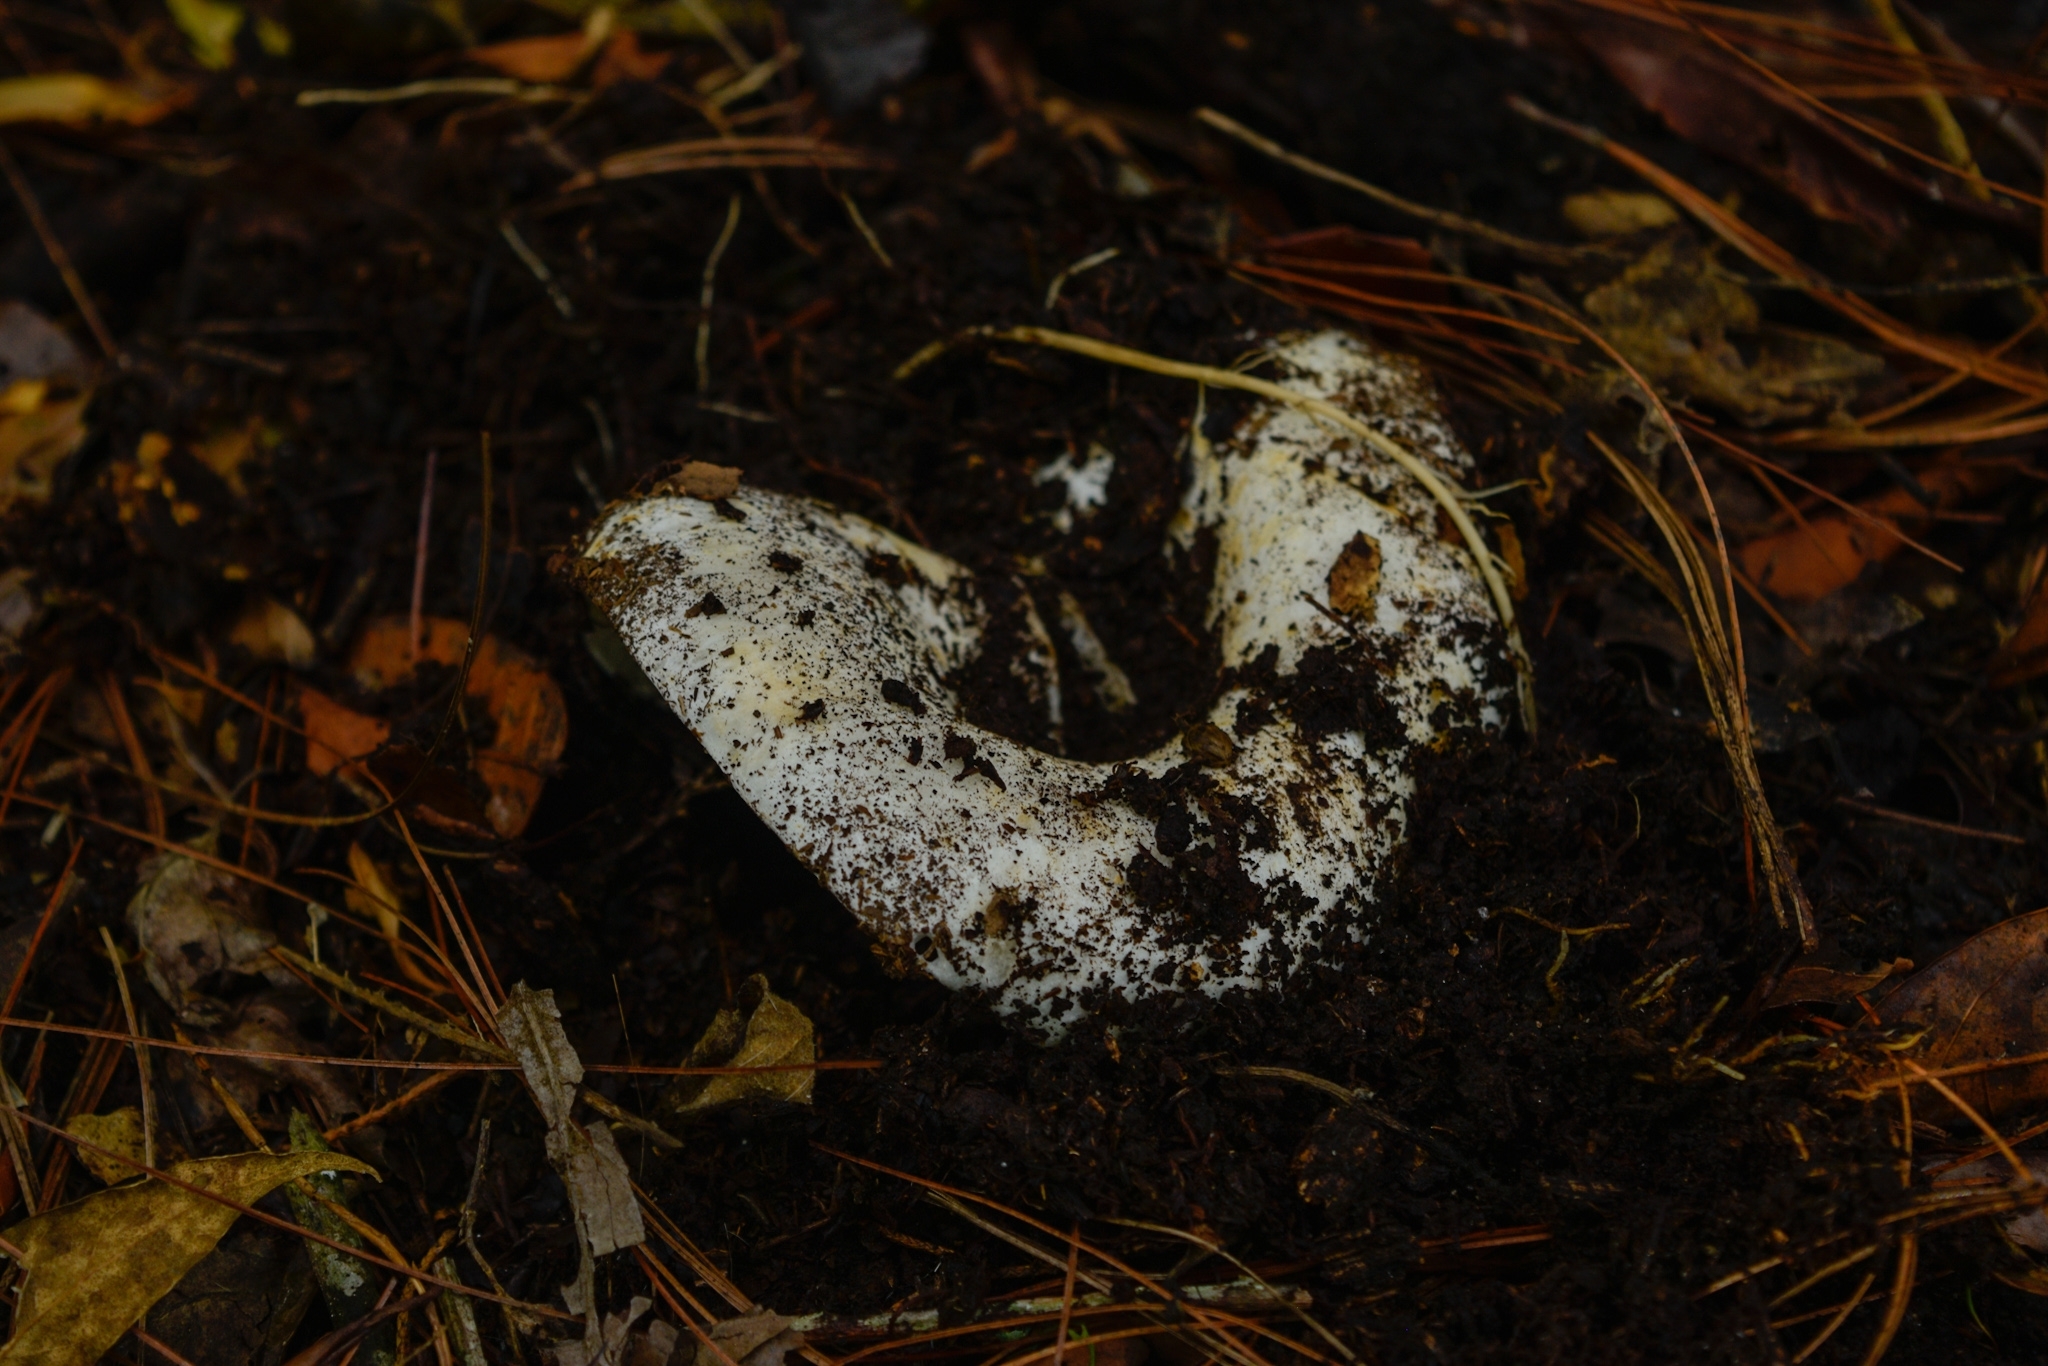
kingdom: Fungi
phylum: Basidiomycota
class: Agaricomycetes
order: Russulales
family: Russulaceae
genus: Russula
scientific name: Russula brevipes
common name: Short-stemmed russula
